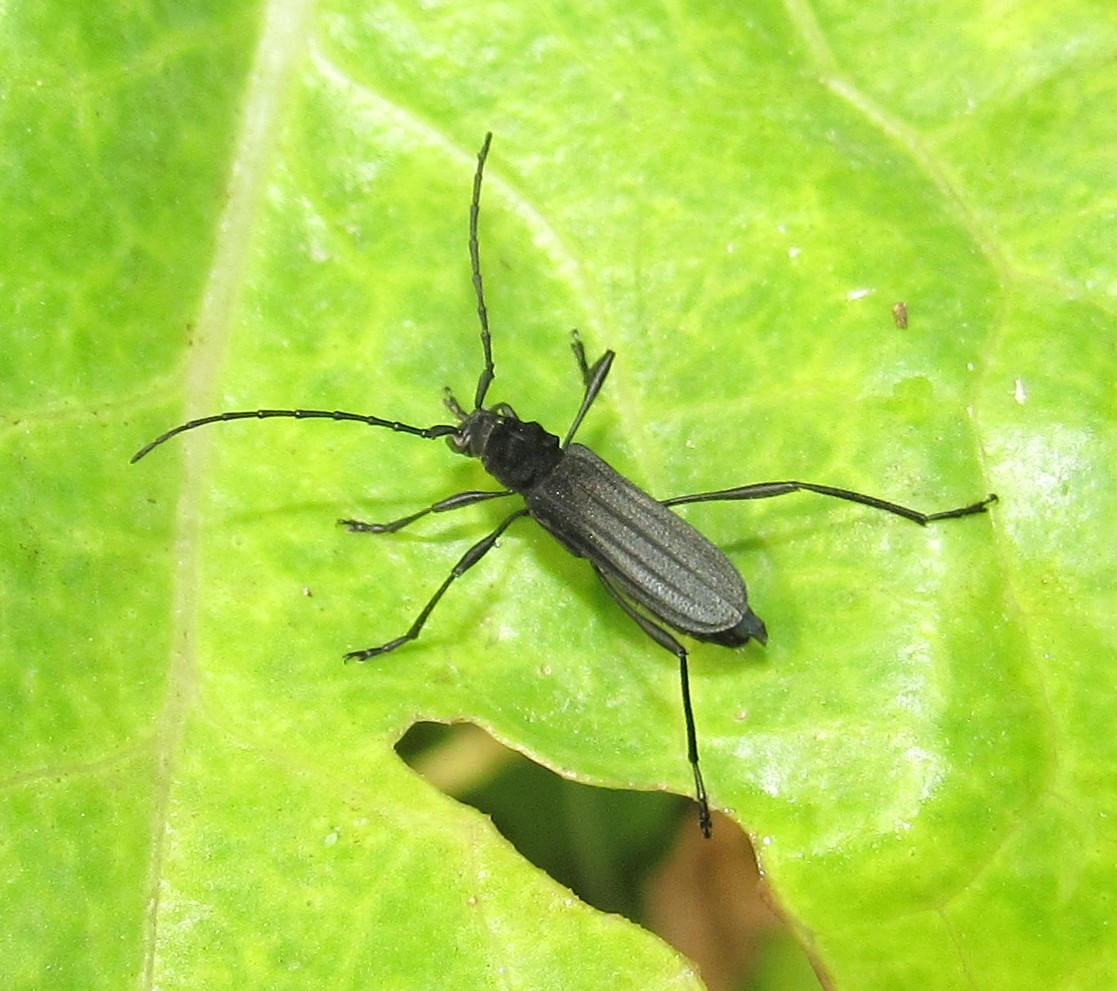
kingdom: Animalia
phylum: Arthropoda
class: Insecta
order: Coleoptera
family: Cerambycidae
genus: Listroptera
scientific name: Listroptera tenebricosa
